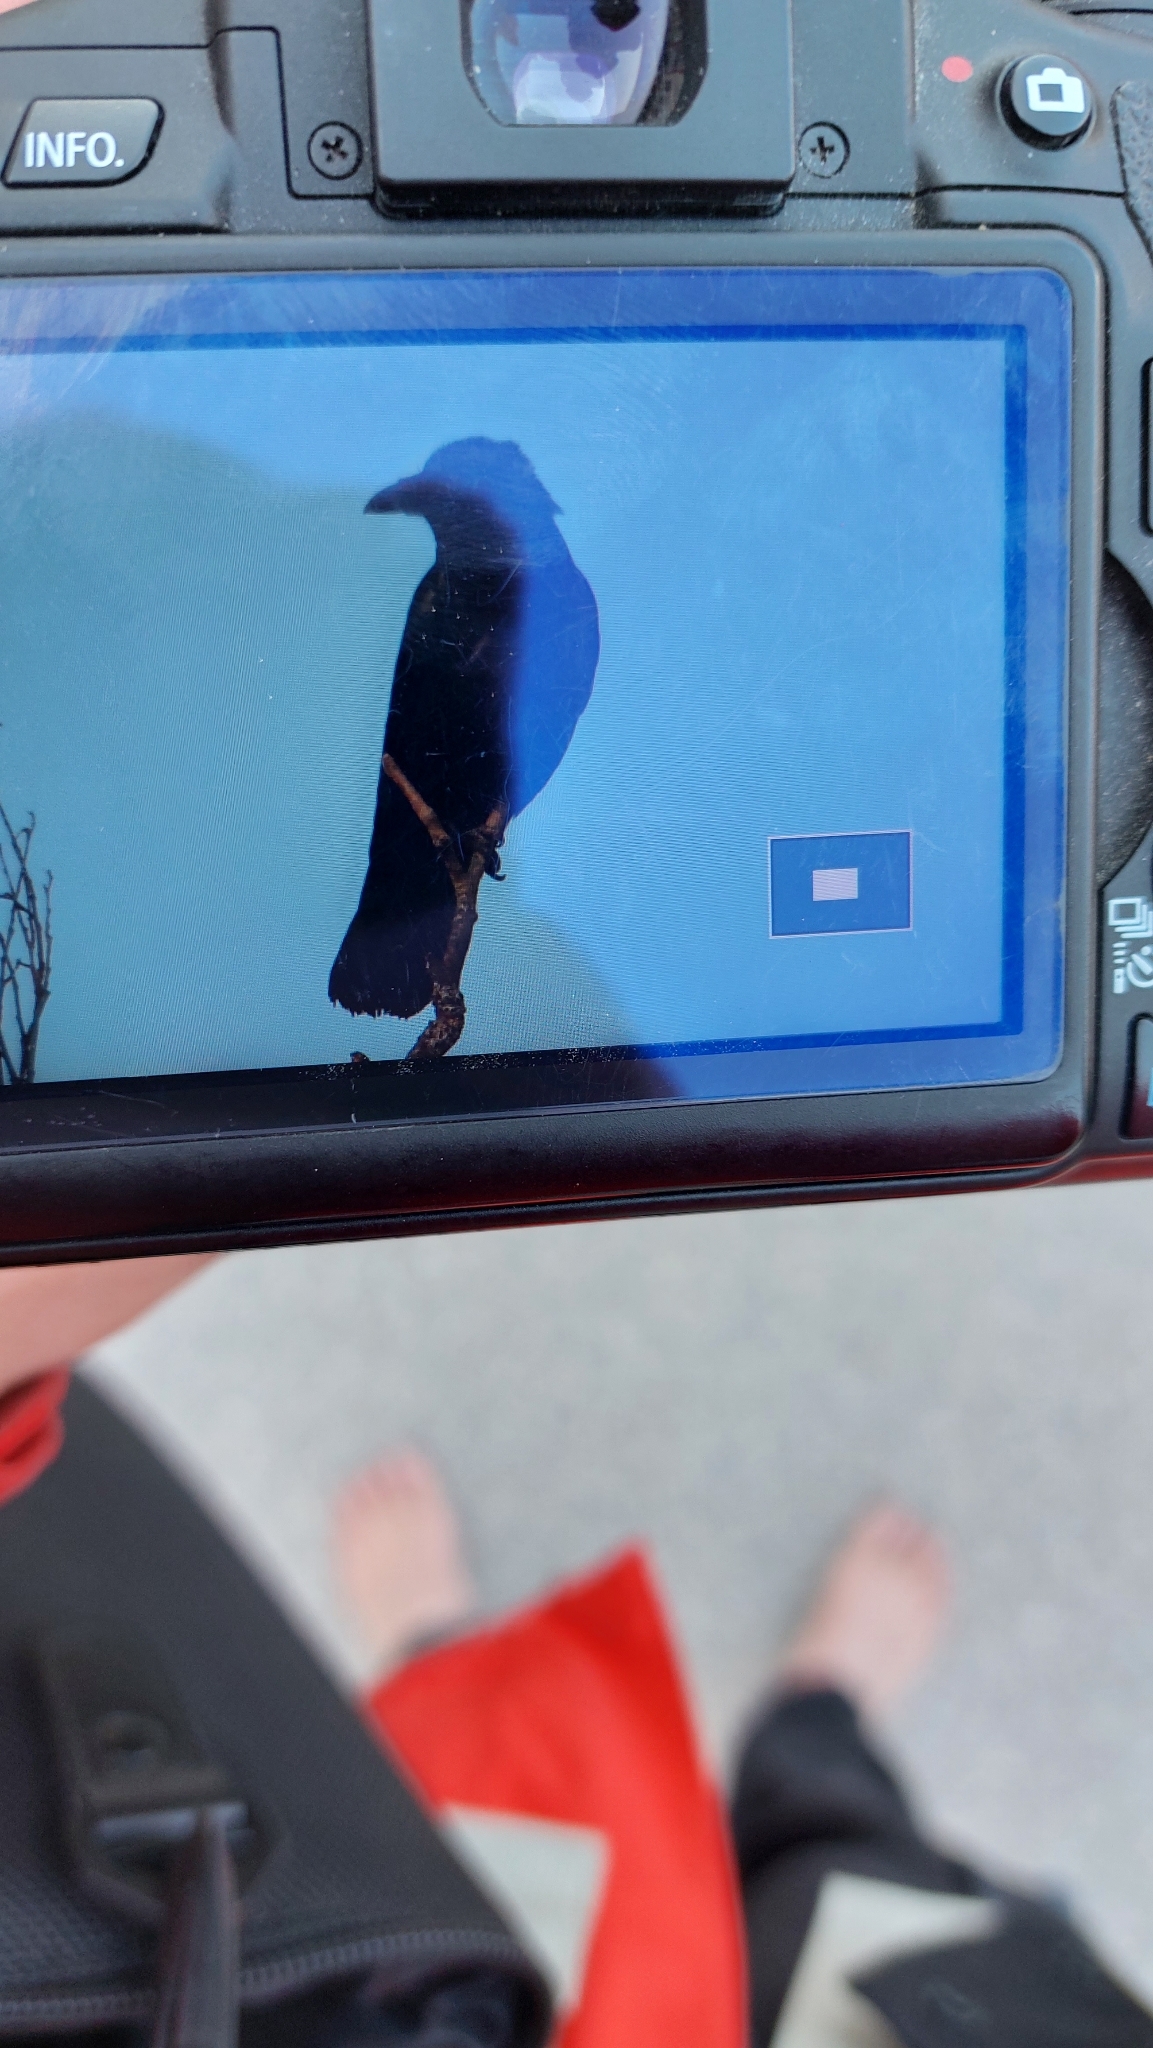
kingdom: Animalia
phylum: Chordata
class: Aves
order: Passeriformes
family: Corvidae
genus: Corvus
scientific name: Corvus corone
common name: Carrion crow
